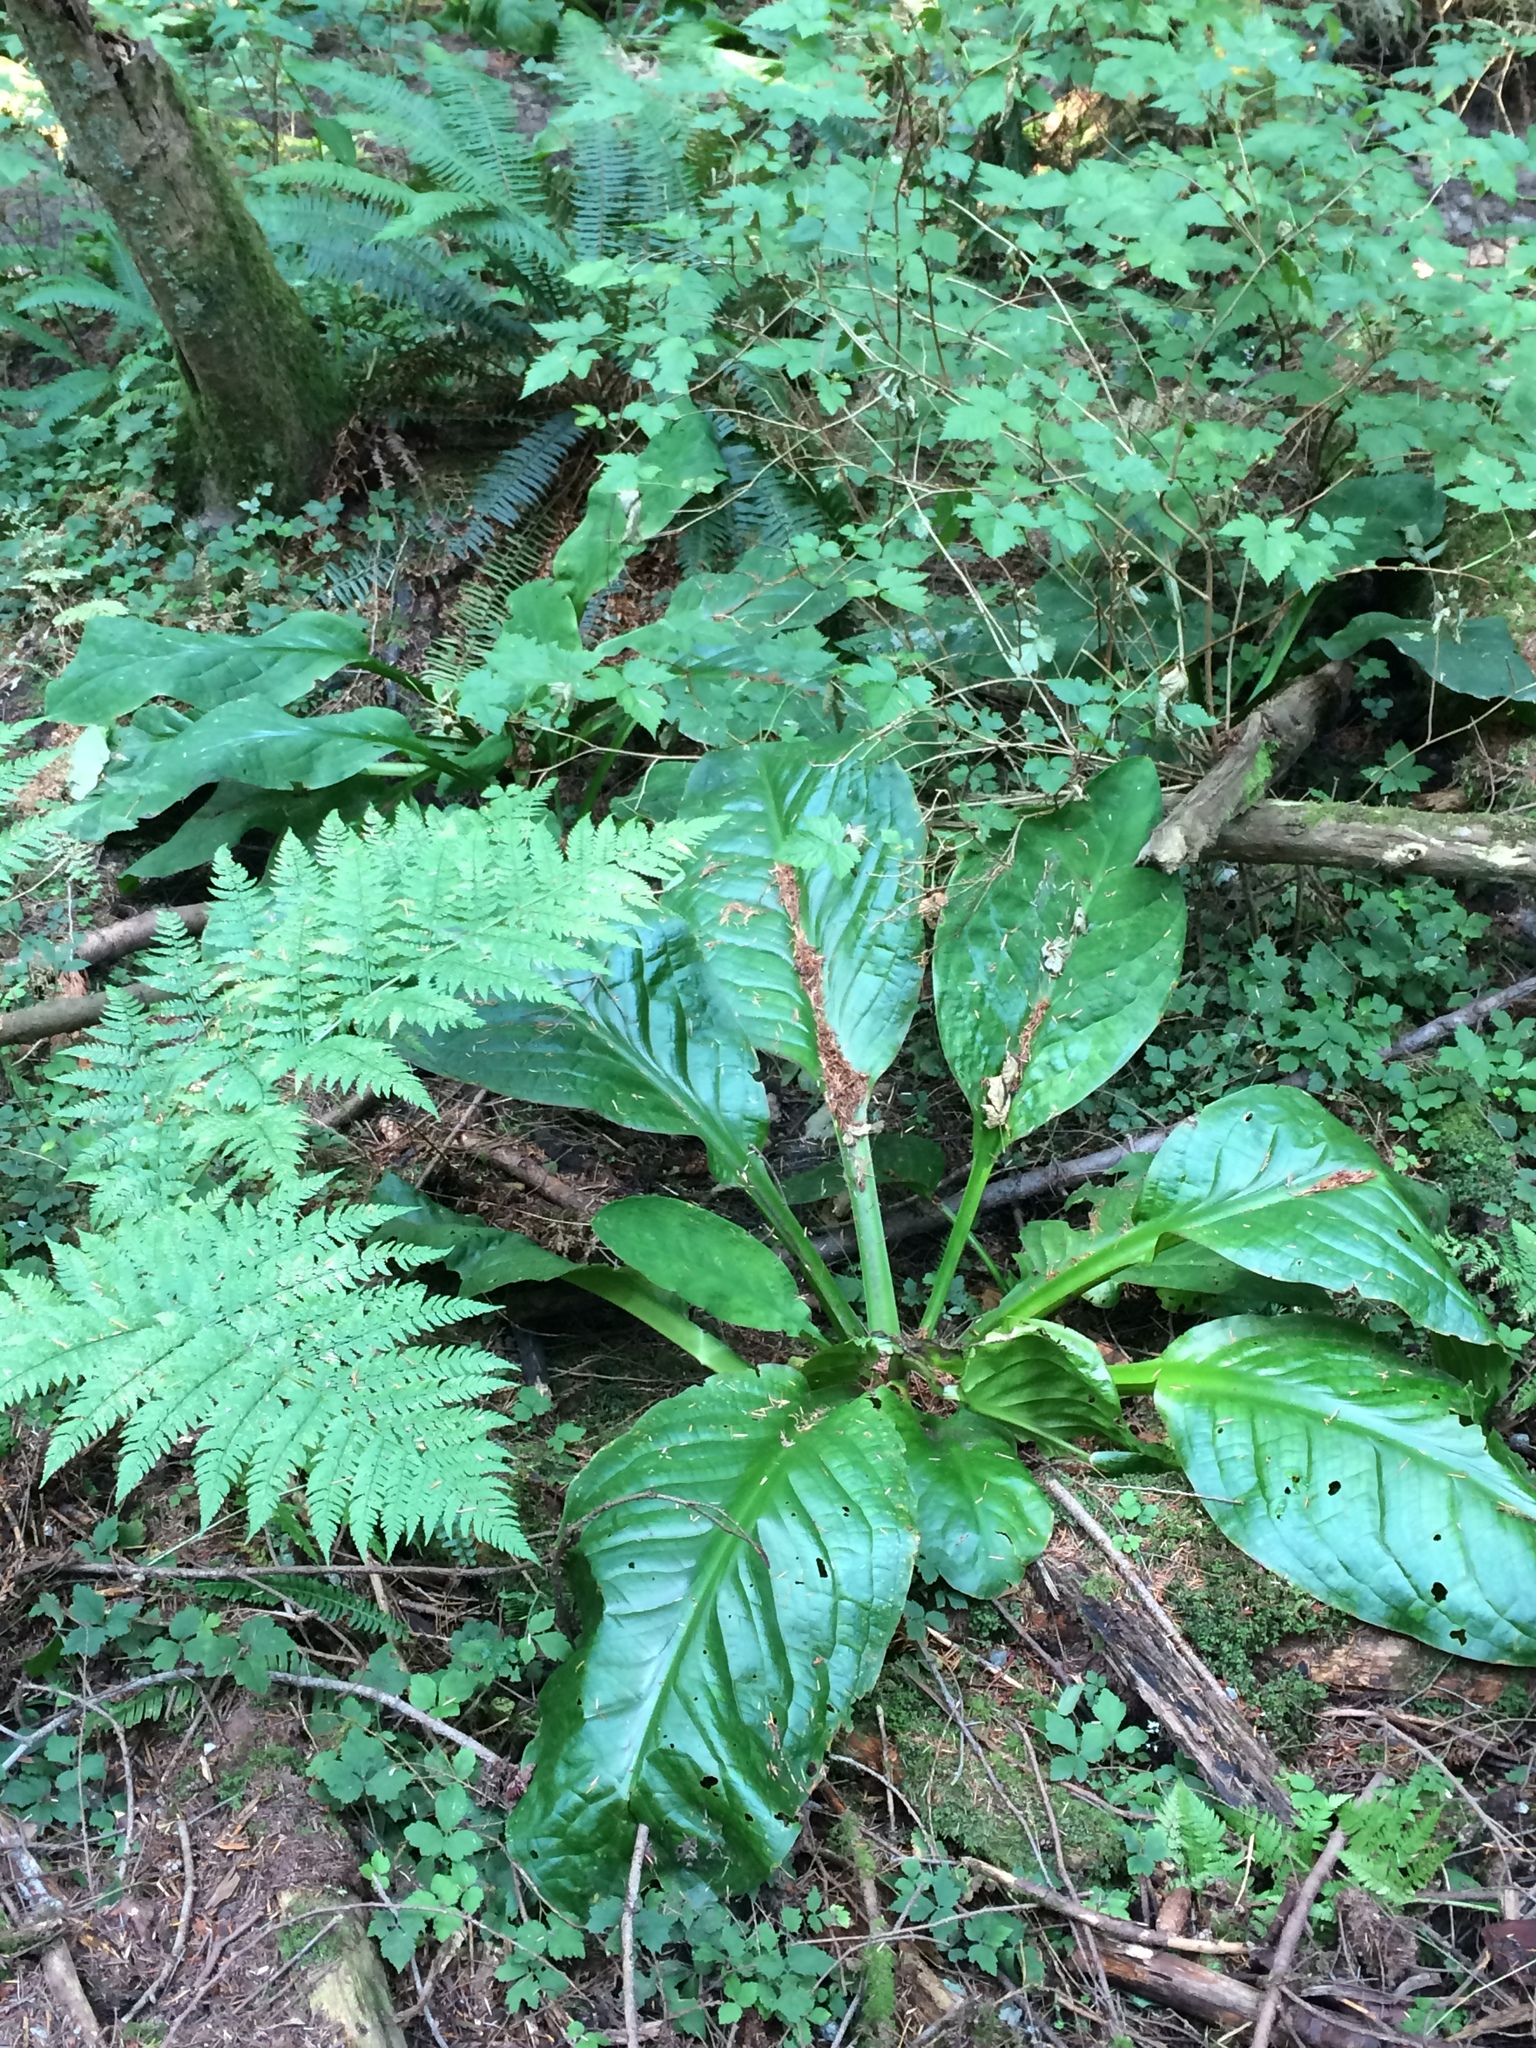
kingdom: Plantae
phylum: Tracheophyta
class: Liliopsida
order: Alismatales
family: Araceae
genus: Lysichiton
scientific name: Lysichiton americanus
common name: American skunk cabbage
